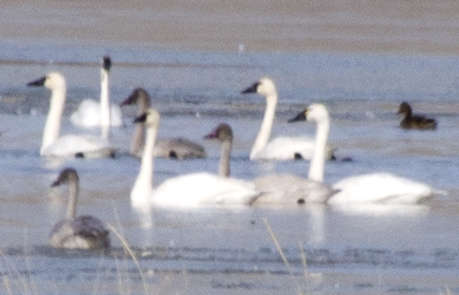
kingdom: Animalia
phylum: Chordata
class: Aves
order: Anseriformes
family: Anatidae
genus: Cygnus
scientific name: Cygnus columbianus
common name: Tundra swan
